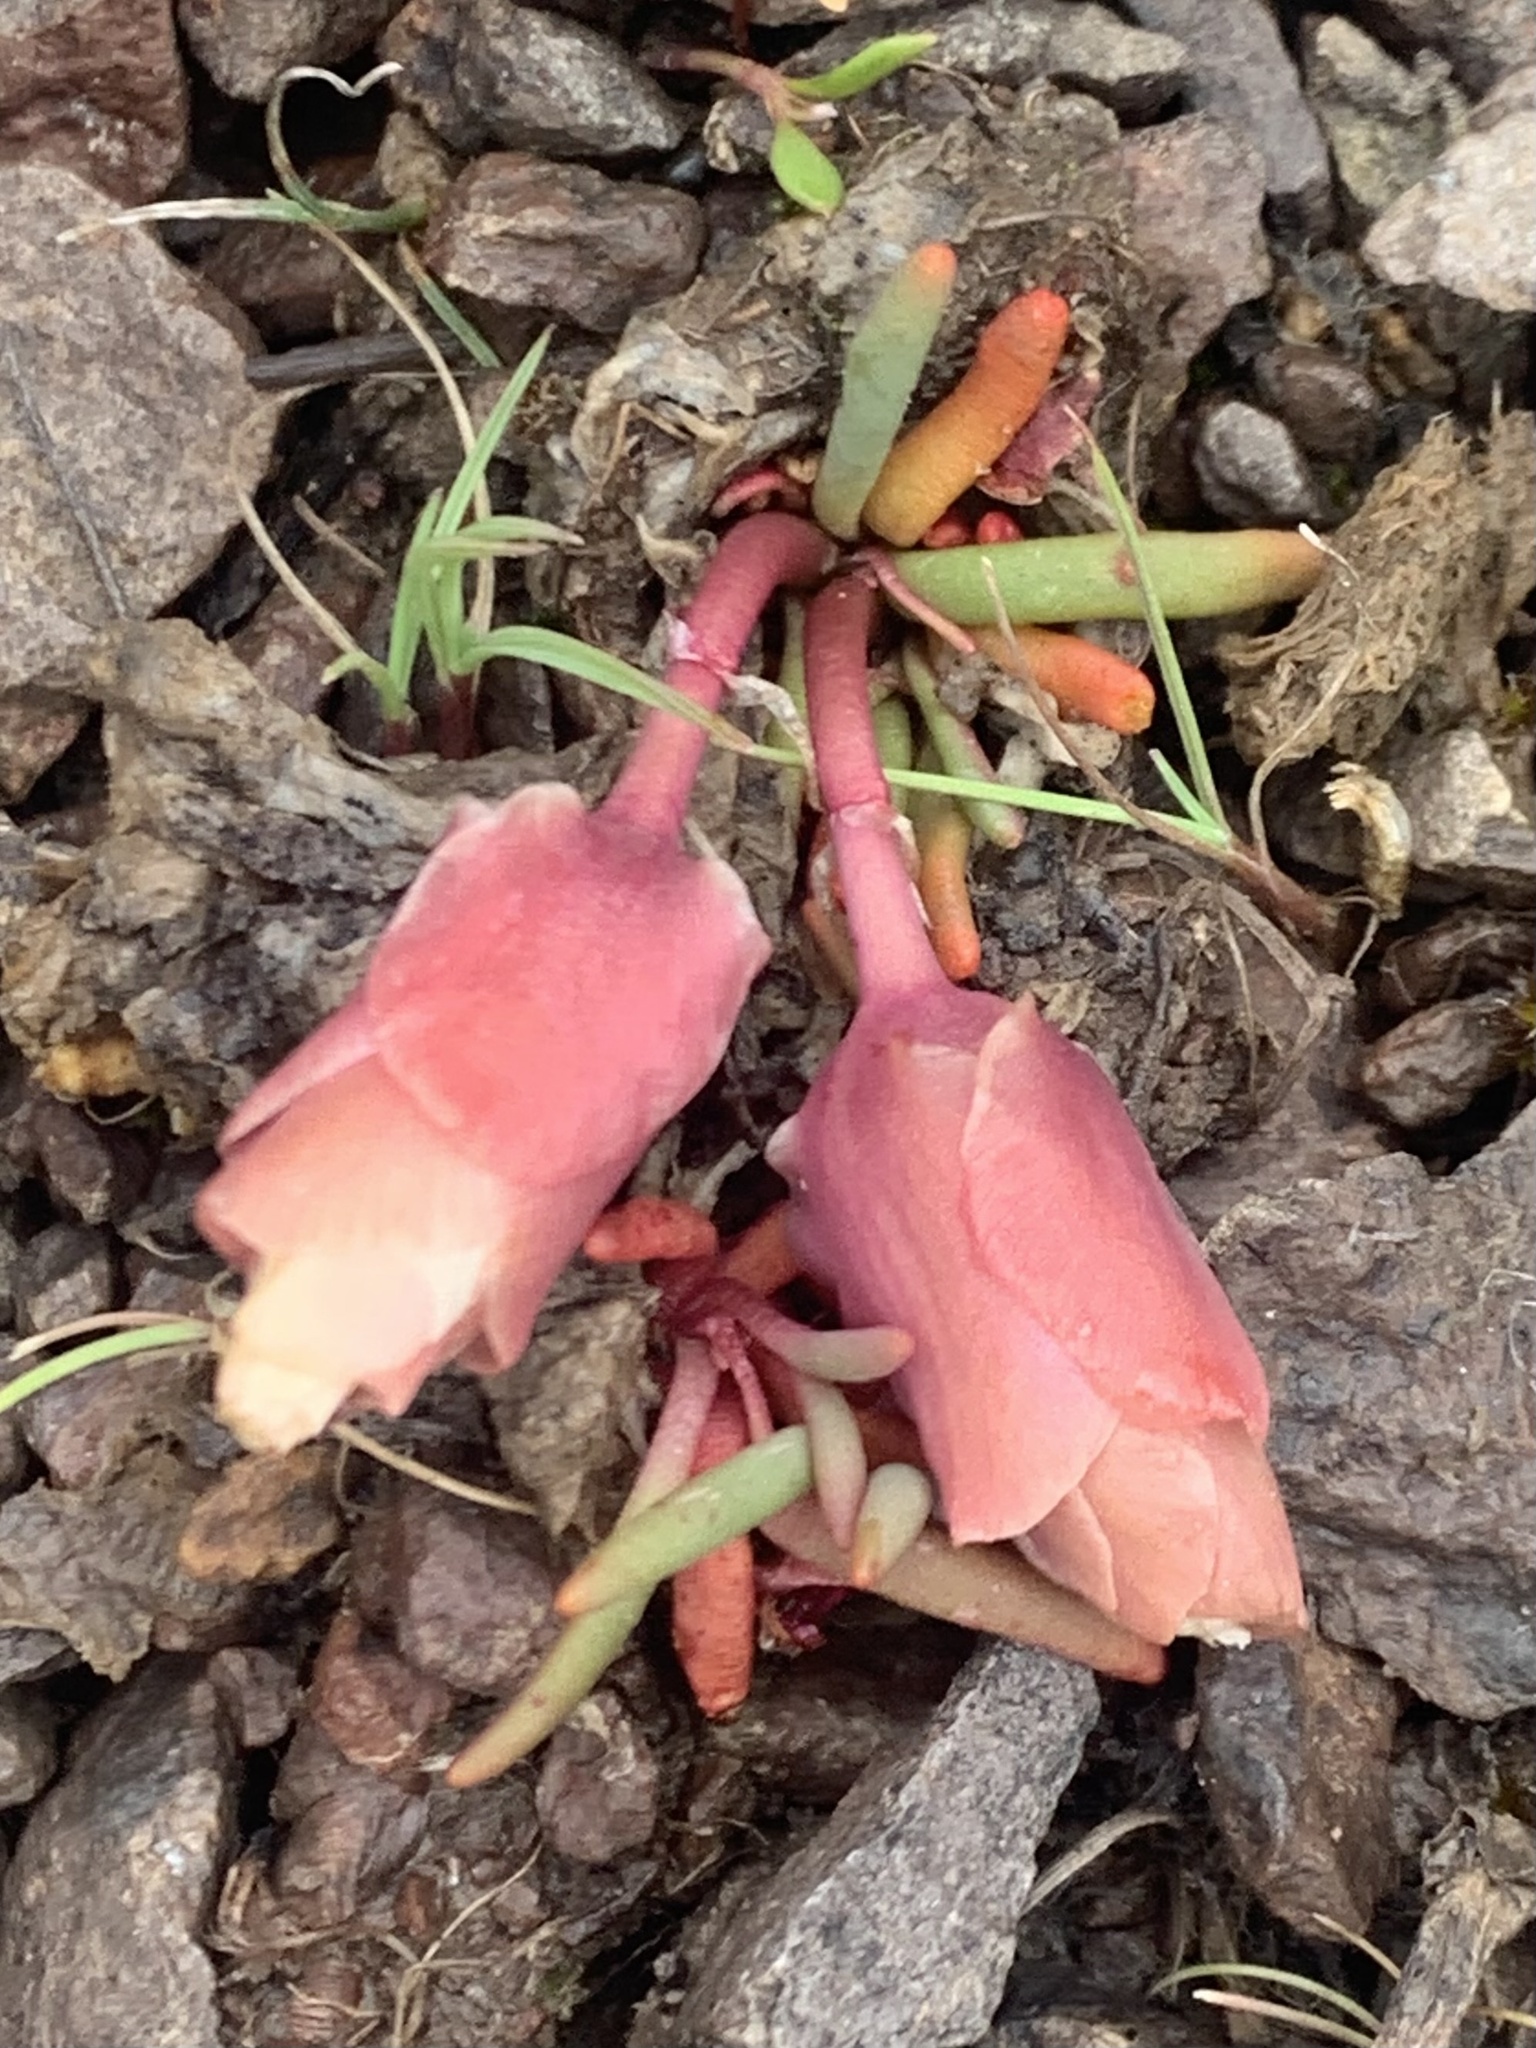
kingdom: Plantae
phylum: Tracheophyta
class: Magnoliopsida
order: Caryophyllales
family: Montiaceae
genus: Lewisia
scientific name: Lewisia rediviva
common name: Bitter-root
